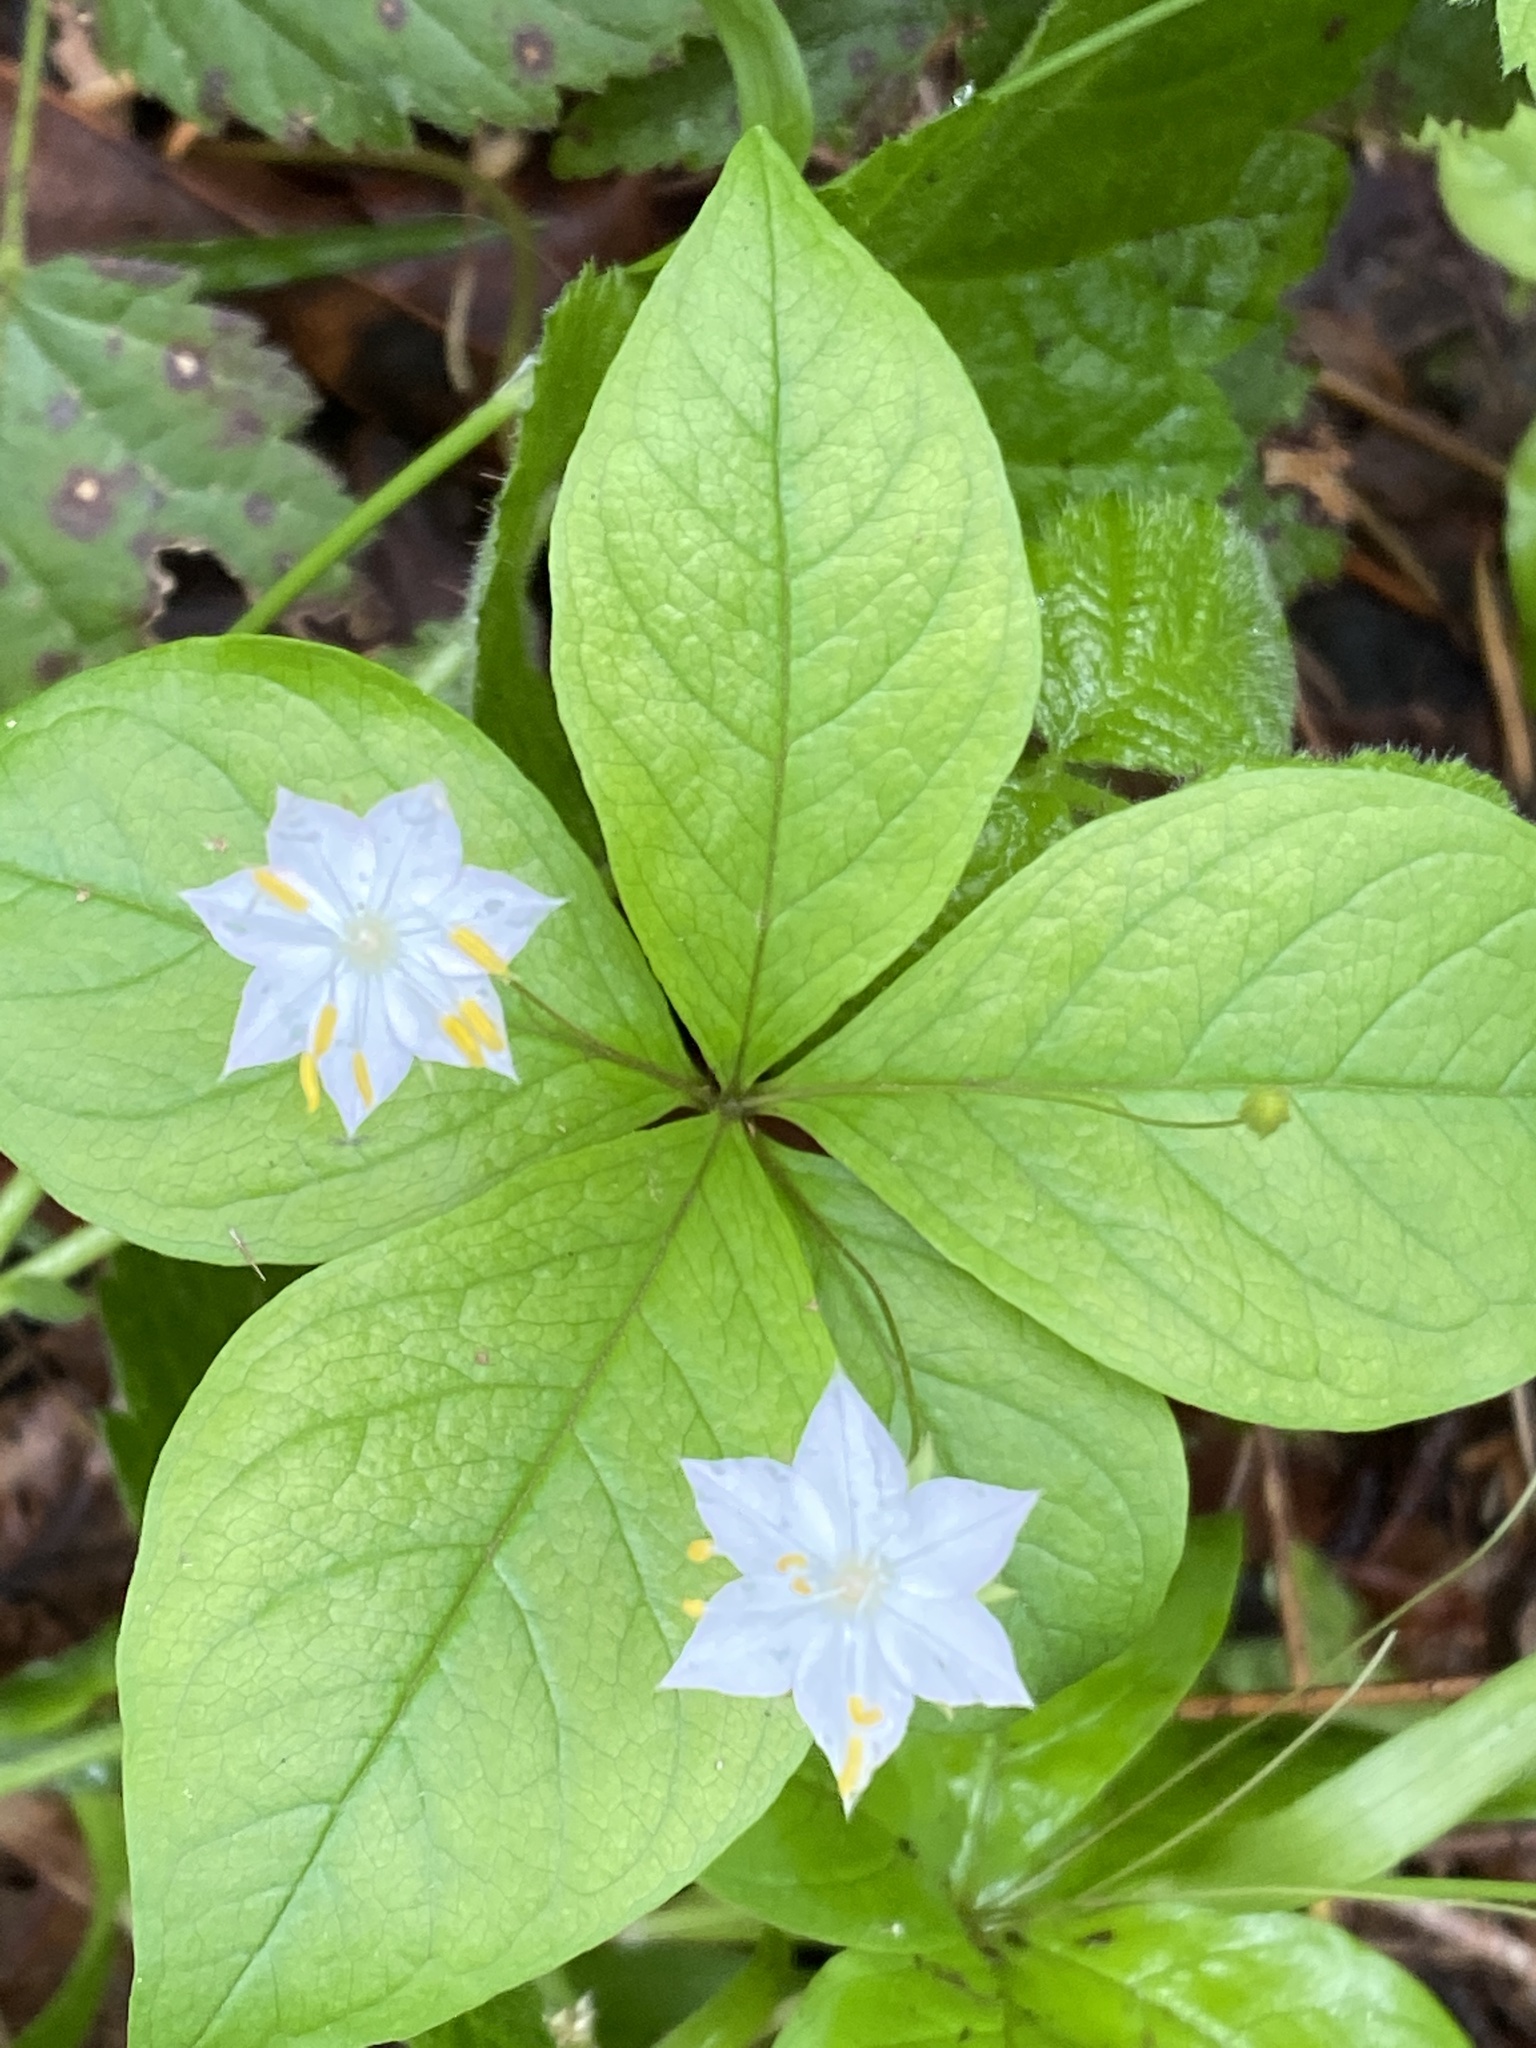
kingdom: Plantae
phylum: Tracheophyta
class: Magnoliopsida
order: Ericales
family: Primulaceae
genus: Lysimachia
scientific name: Lysimachia latifolia
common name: Pacific starflower
